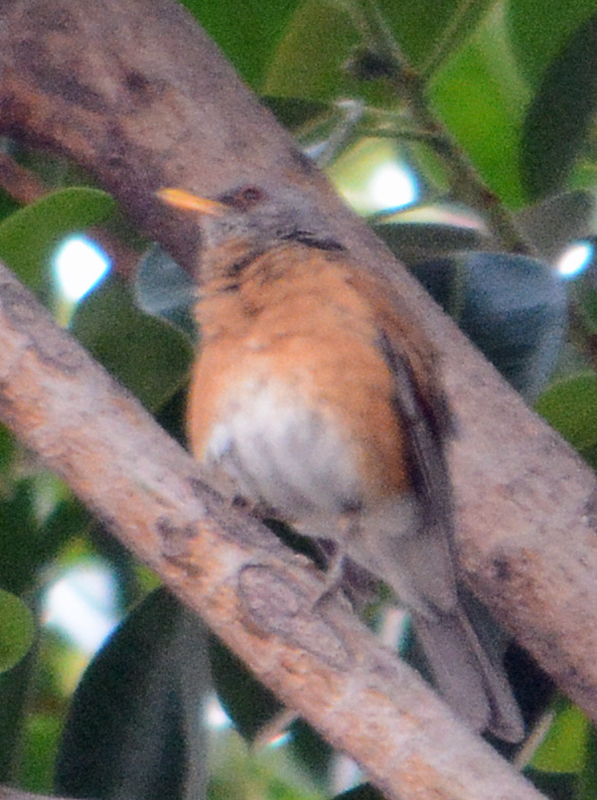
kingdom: Animalia
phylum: Chordata
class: Aves
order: Passeriformes
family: Turdidae
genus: Turdus
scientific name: Turdus rufopalliatus
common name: Rufous-backed robin
